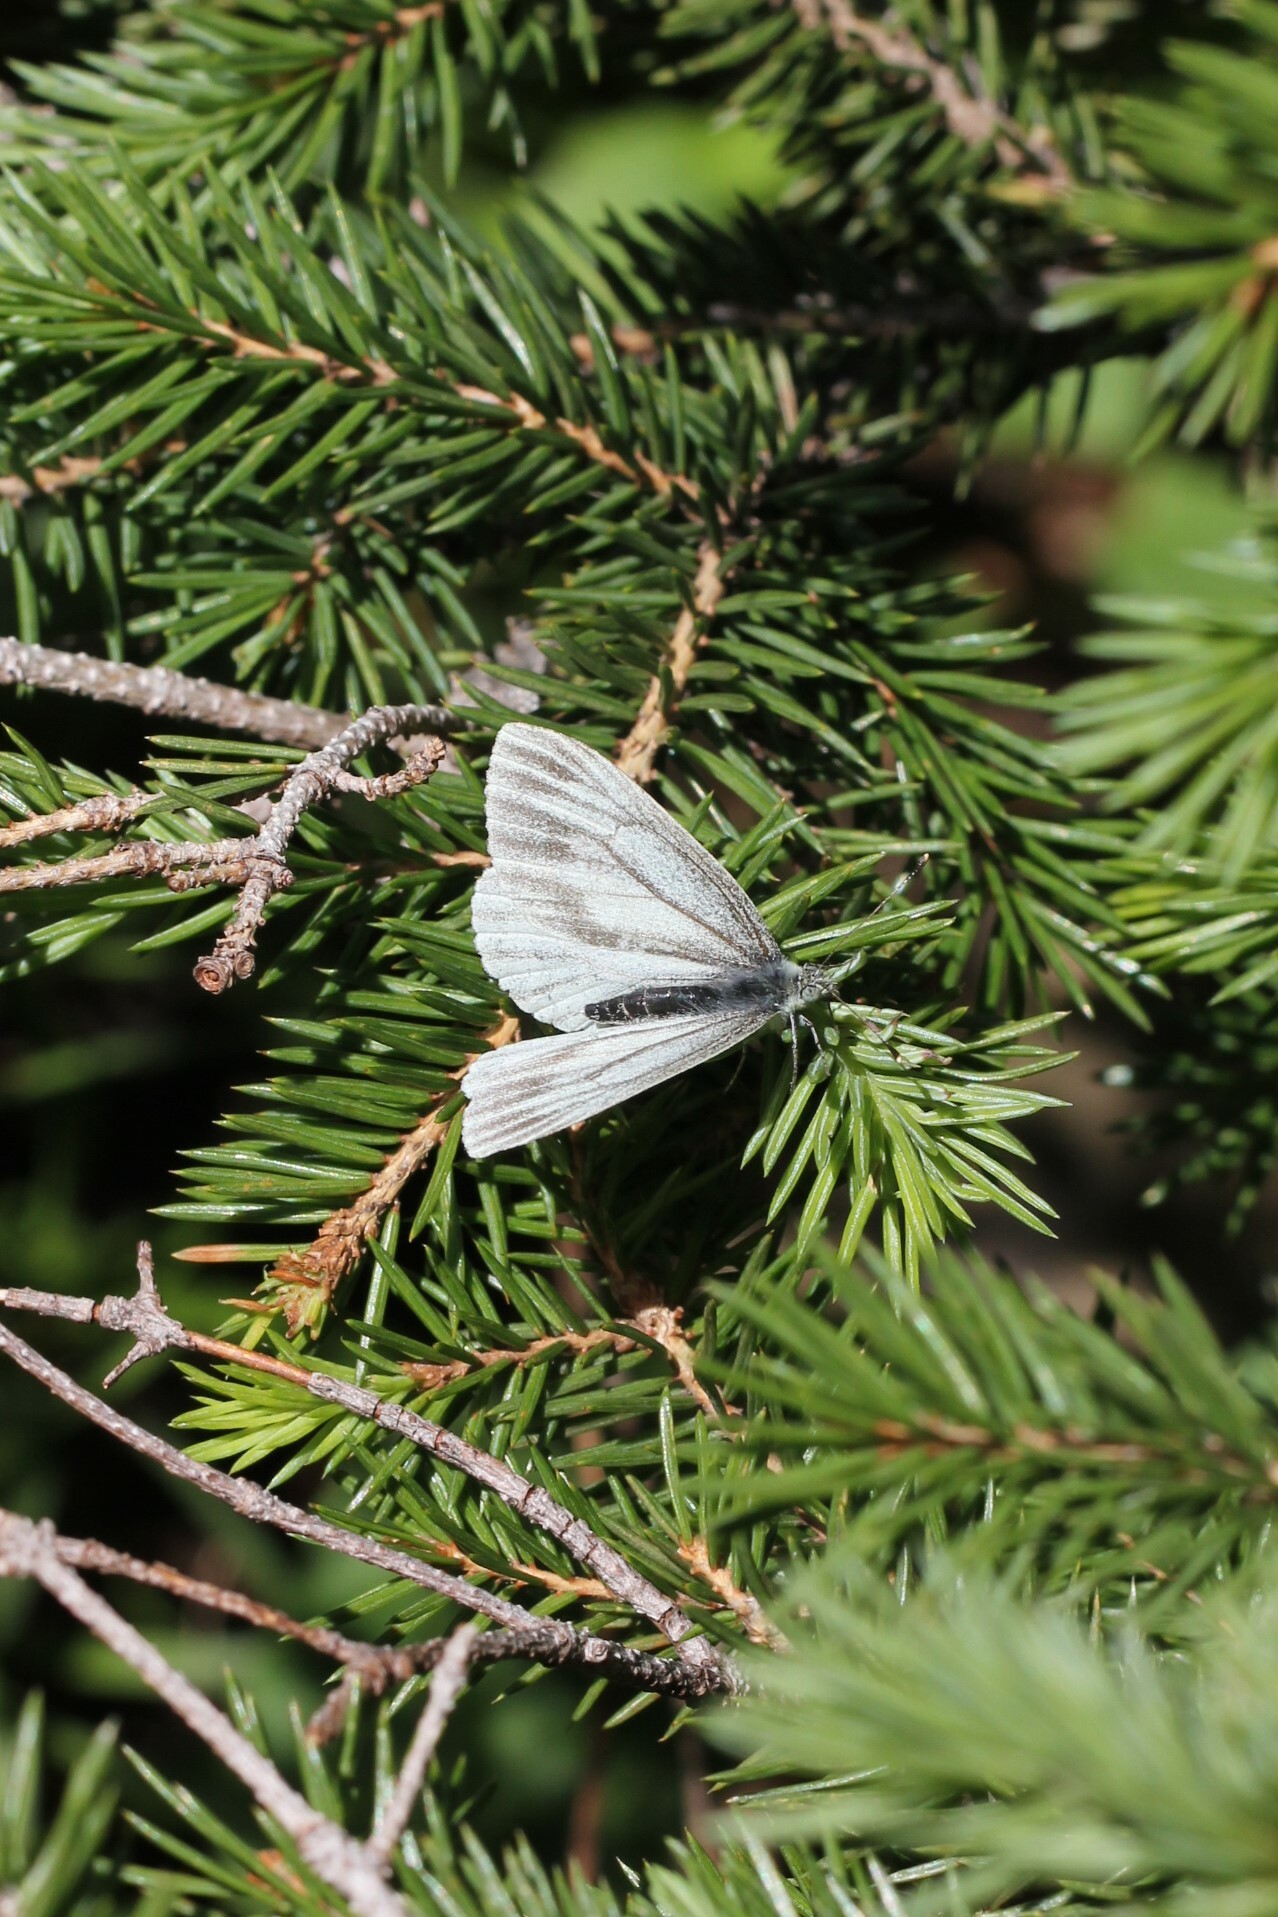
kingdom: Animalia
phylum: Arthropoda
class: Insecta
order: Lepidoptera
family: Pieridae
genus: Pieris
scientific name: Pieris marginalis
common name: Margined white
